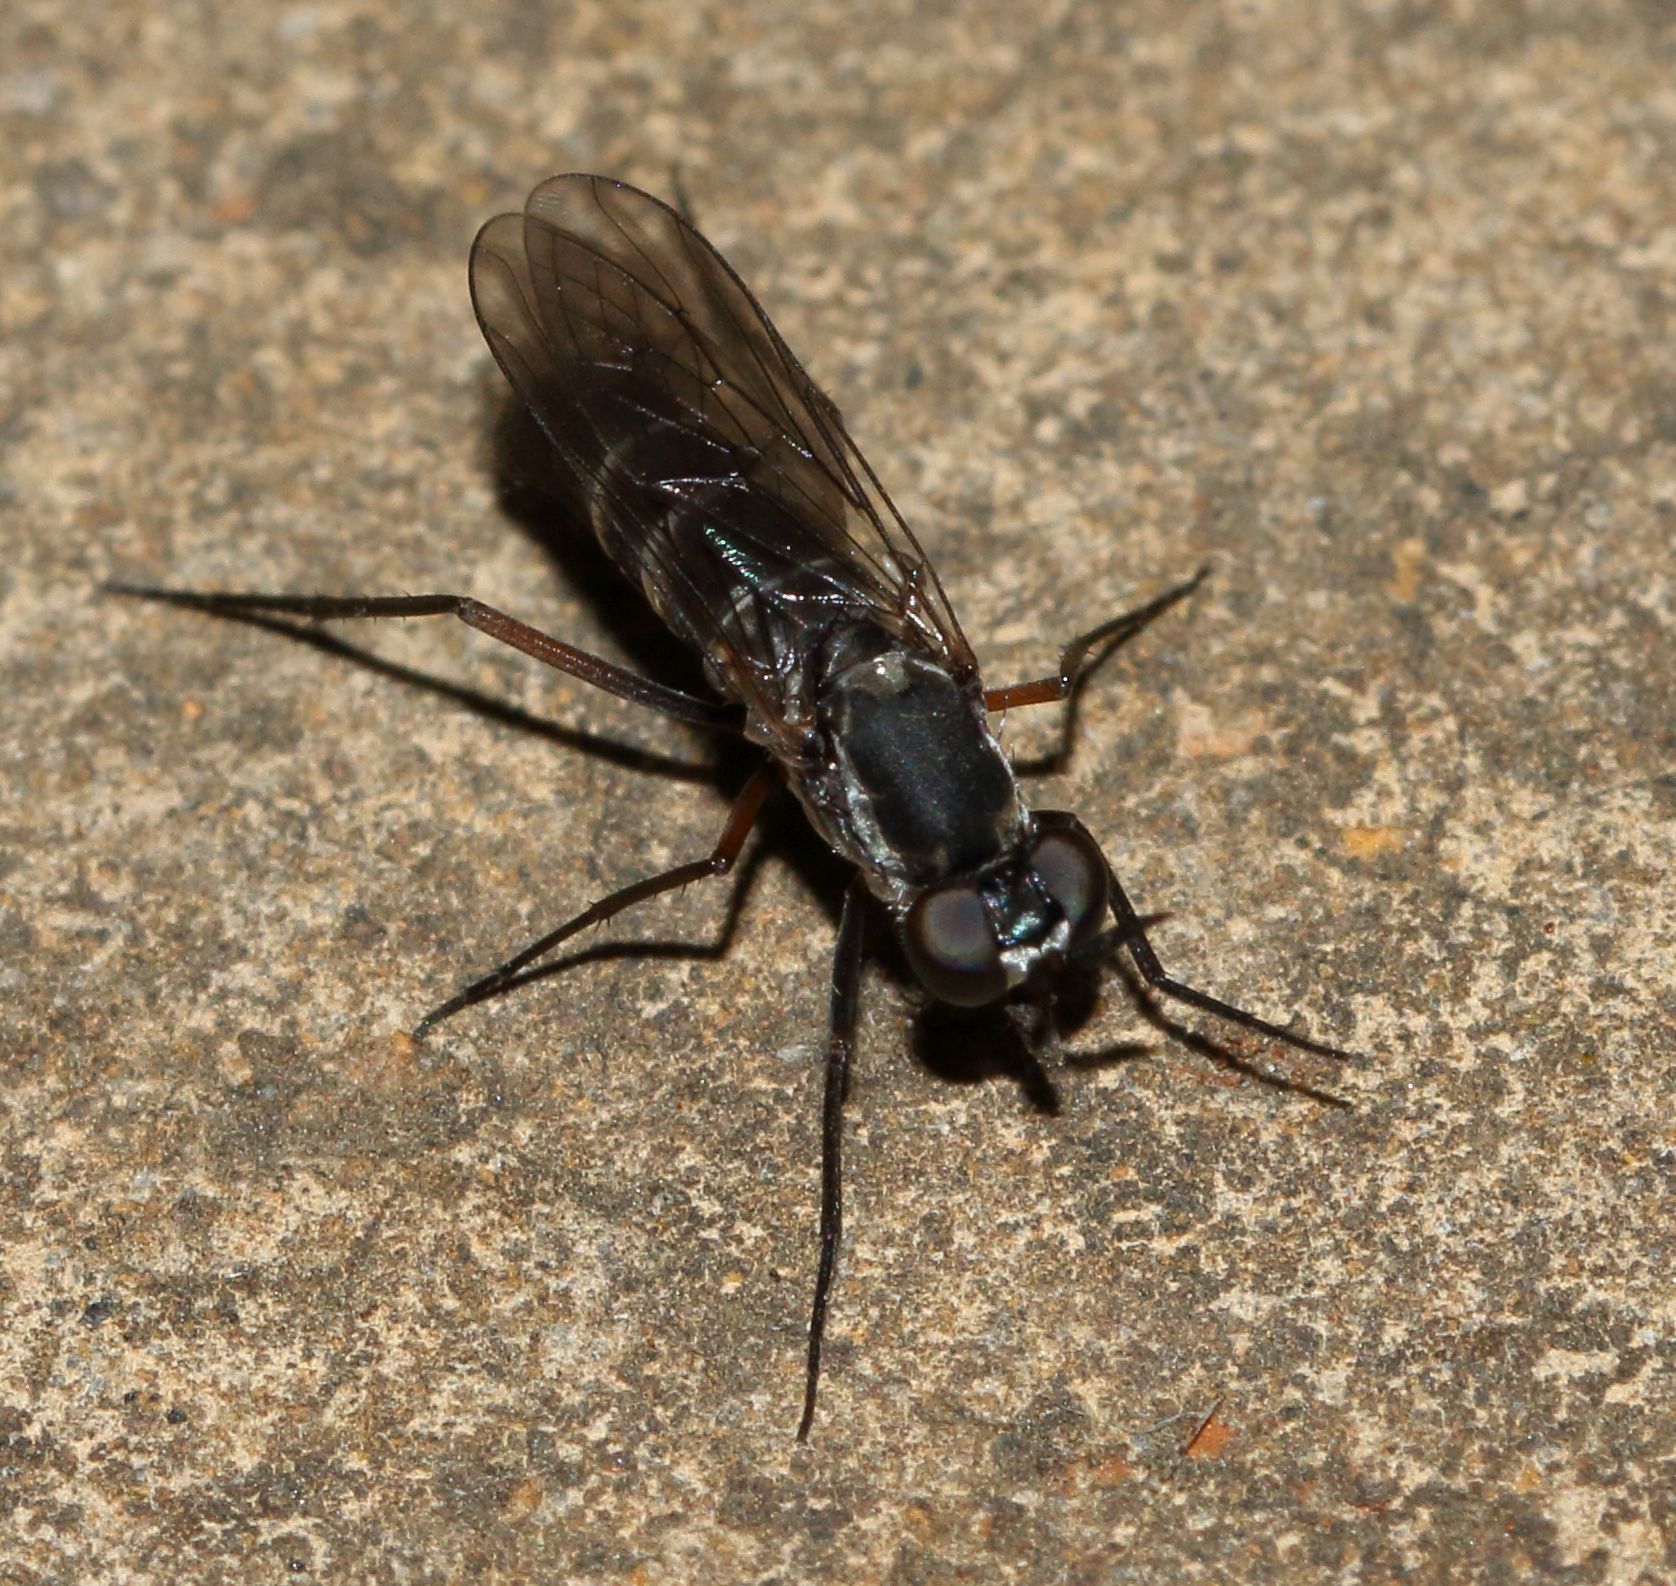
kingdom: Animalia
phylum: Arthropoda
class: Insecta
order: Diptera
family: Therevidae
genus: Phycus
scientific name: Phycus mirabilis
